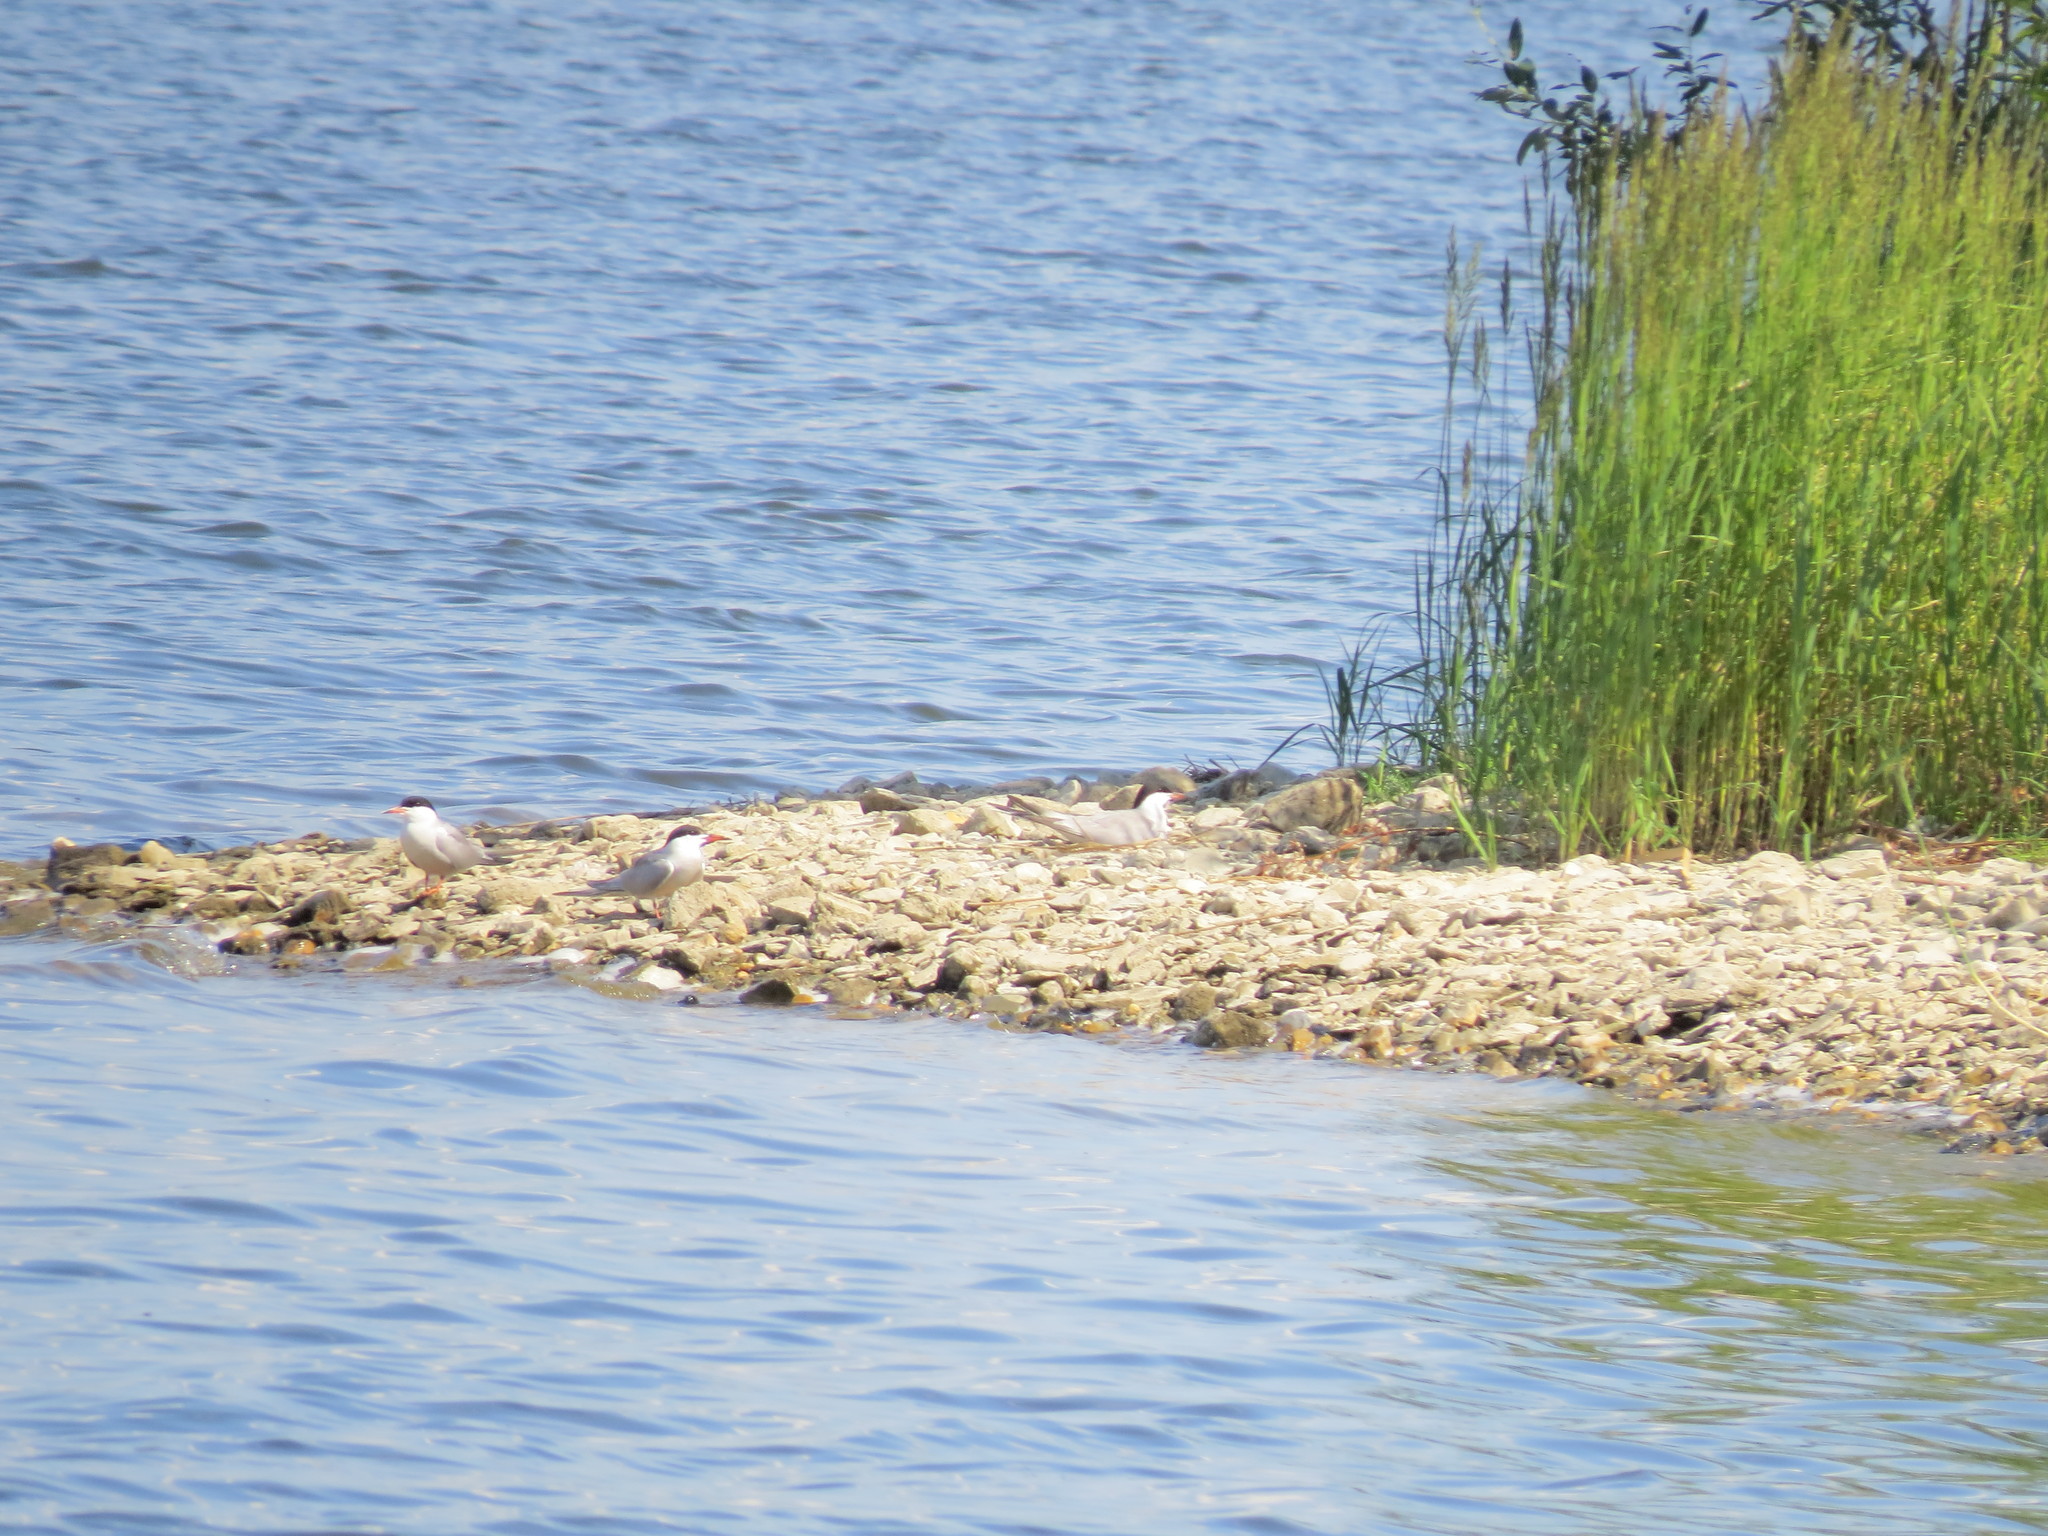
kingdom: Animalia
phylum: Chordata
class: Aves
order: Charadriiformes
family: Laridae
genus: Sterna
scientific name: Sterna hirundo
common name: Common tern
